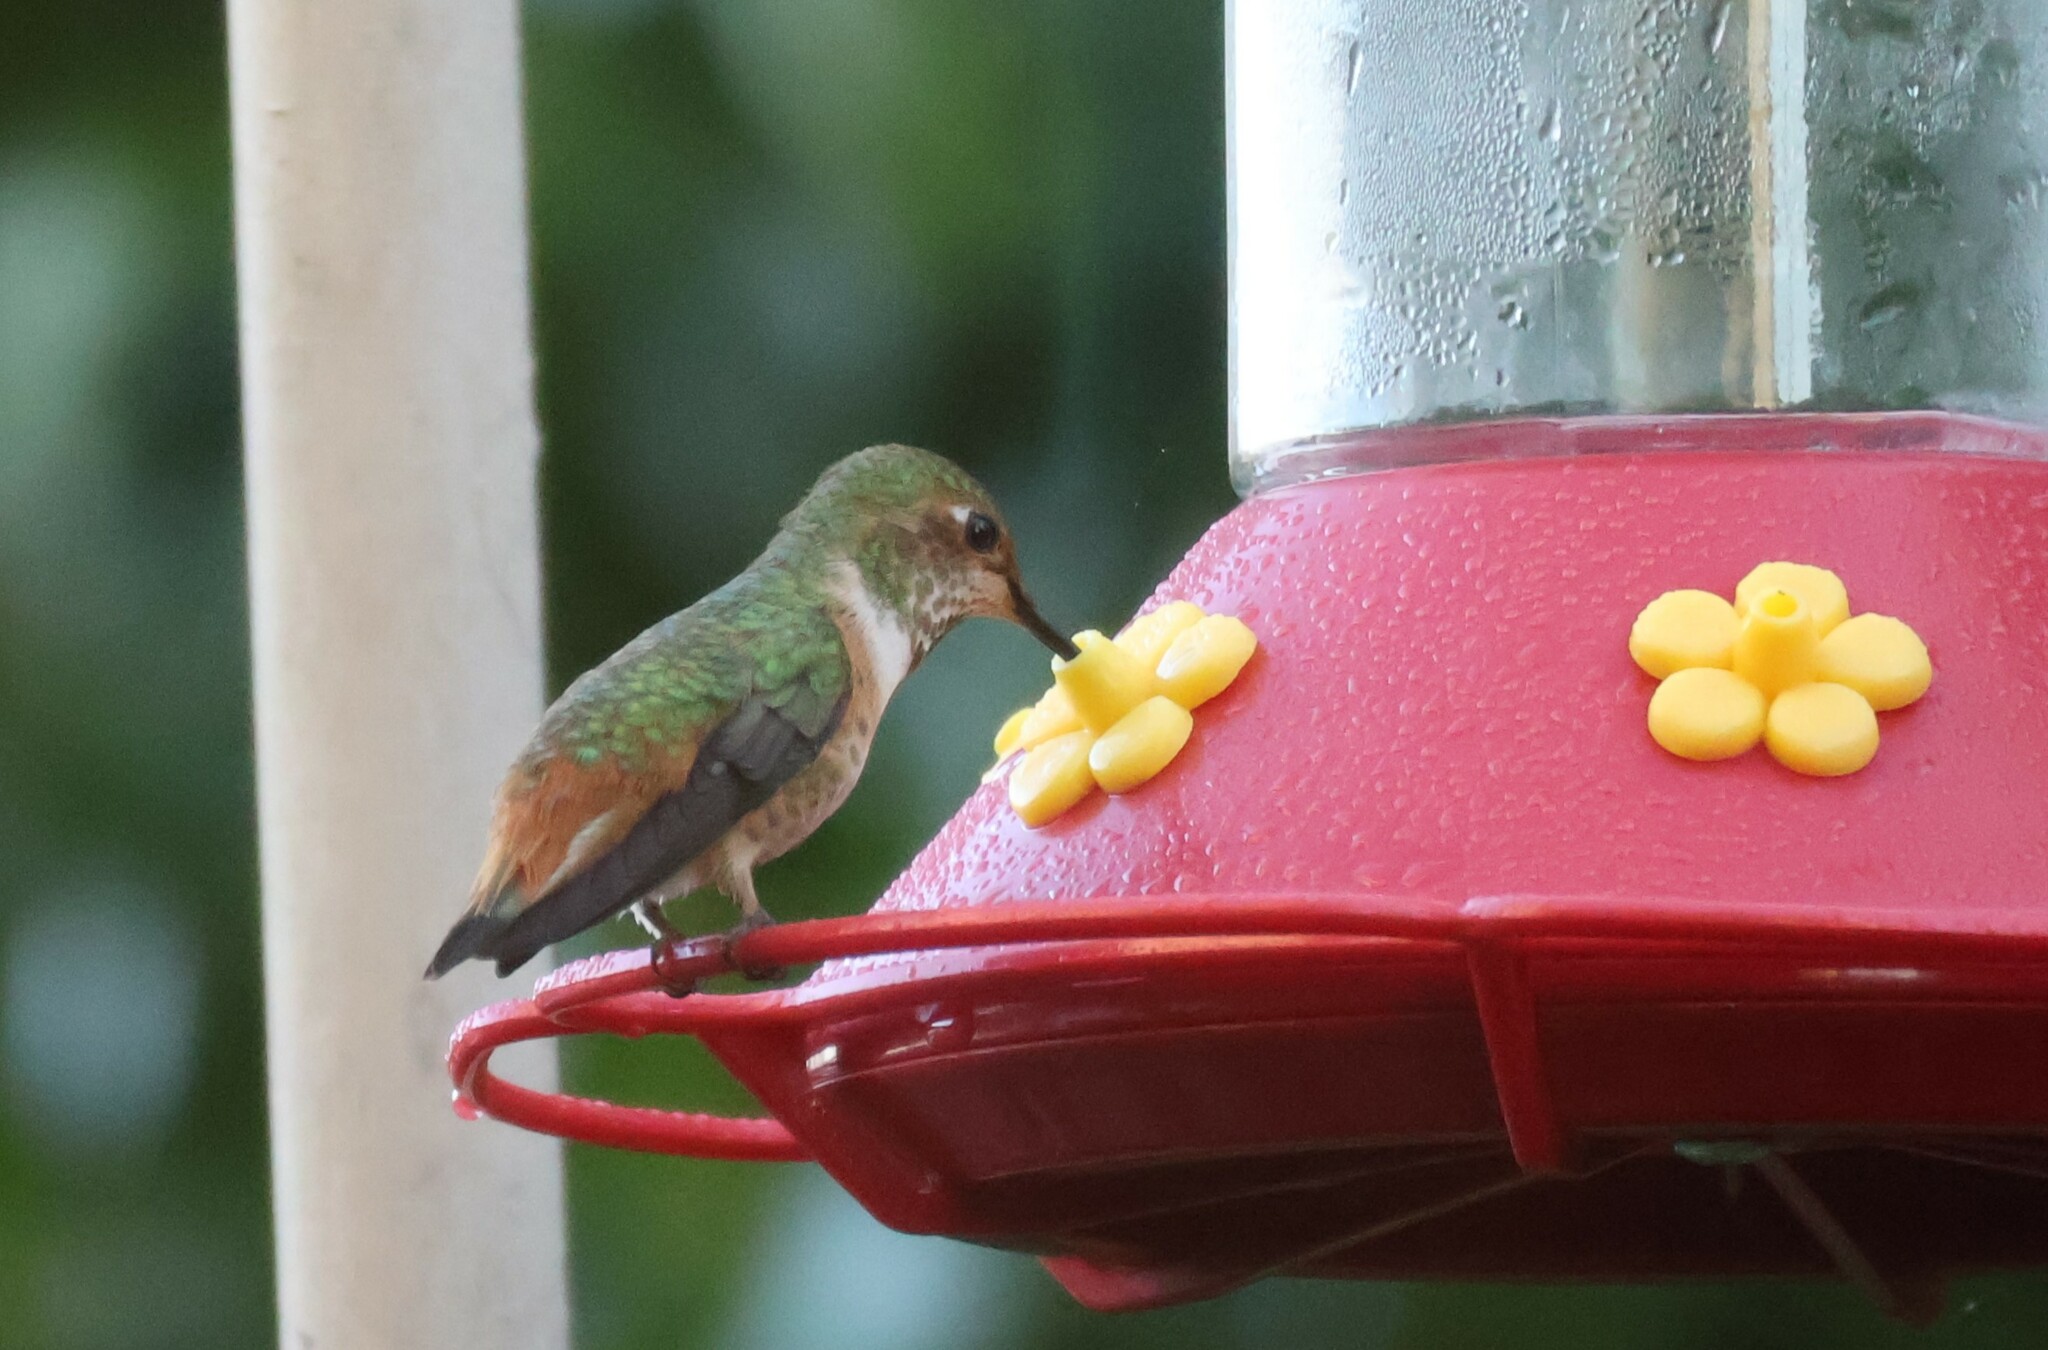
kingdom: Animalia
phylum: Chordata
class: Aves
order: Apodiformes
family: Trochilidae
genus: Selasphorus
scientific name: Selasphorus
